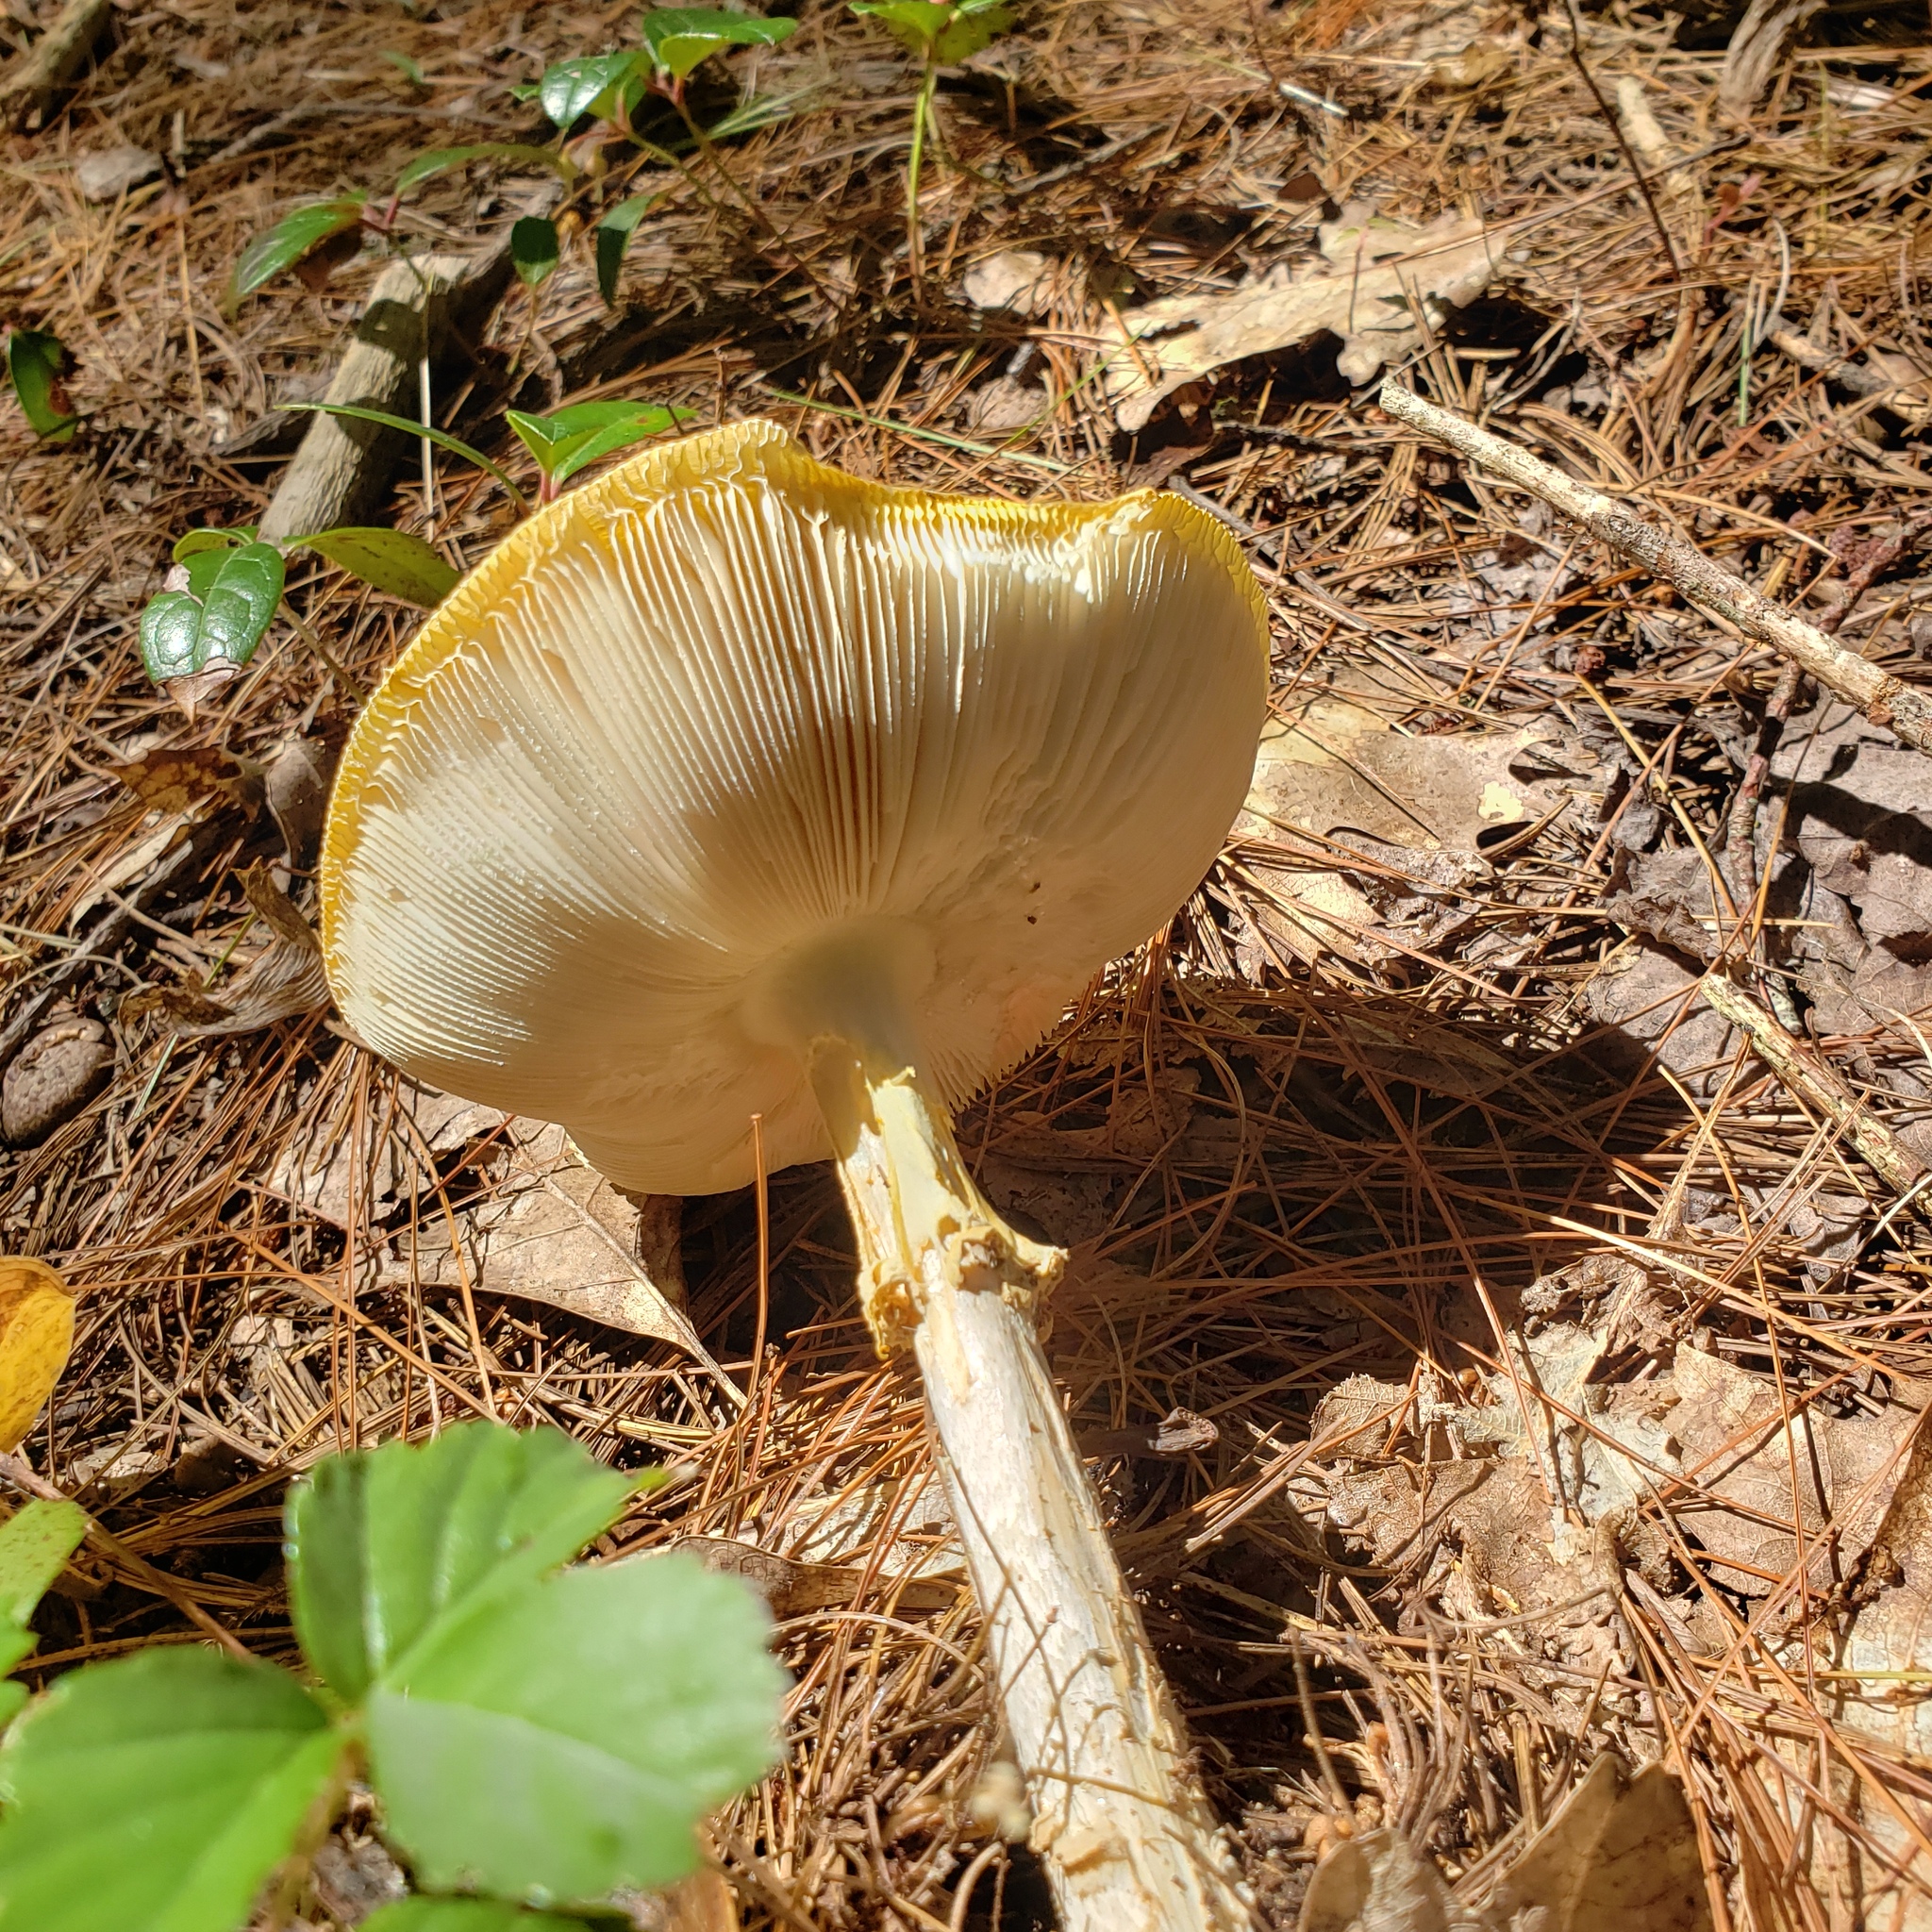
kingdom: Fungi
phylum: Basidiomycota
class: Agaricomycetes
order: Agaricales
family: Amanitaceae
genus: Amanita
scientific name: Amanita muscaria
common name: Fly agaric
